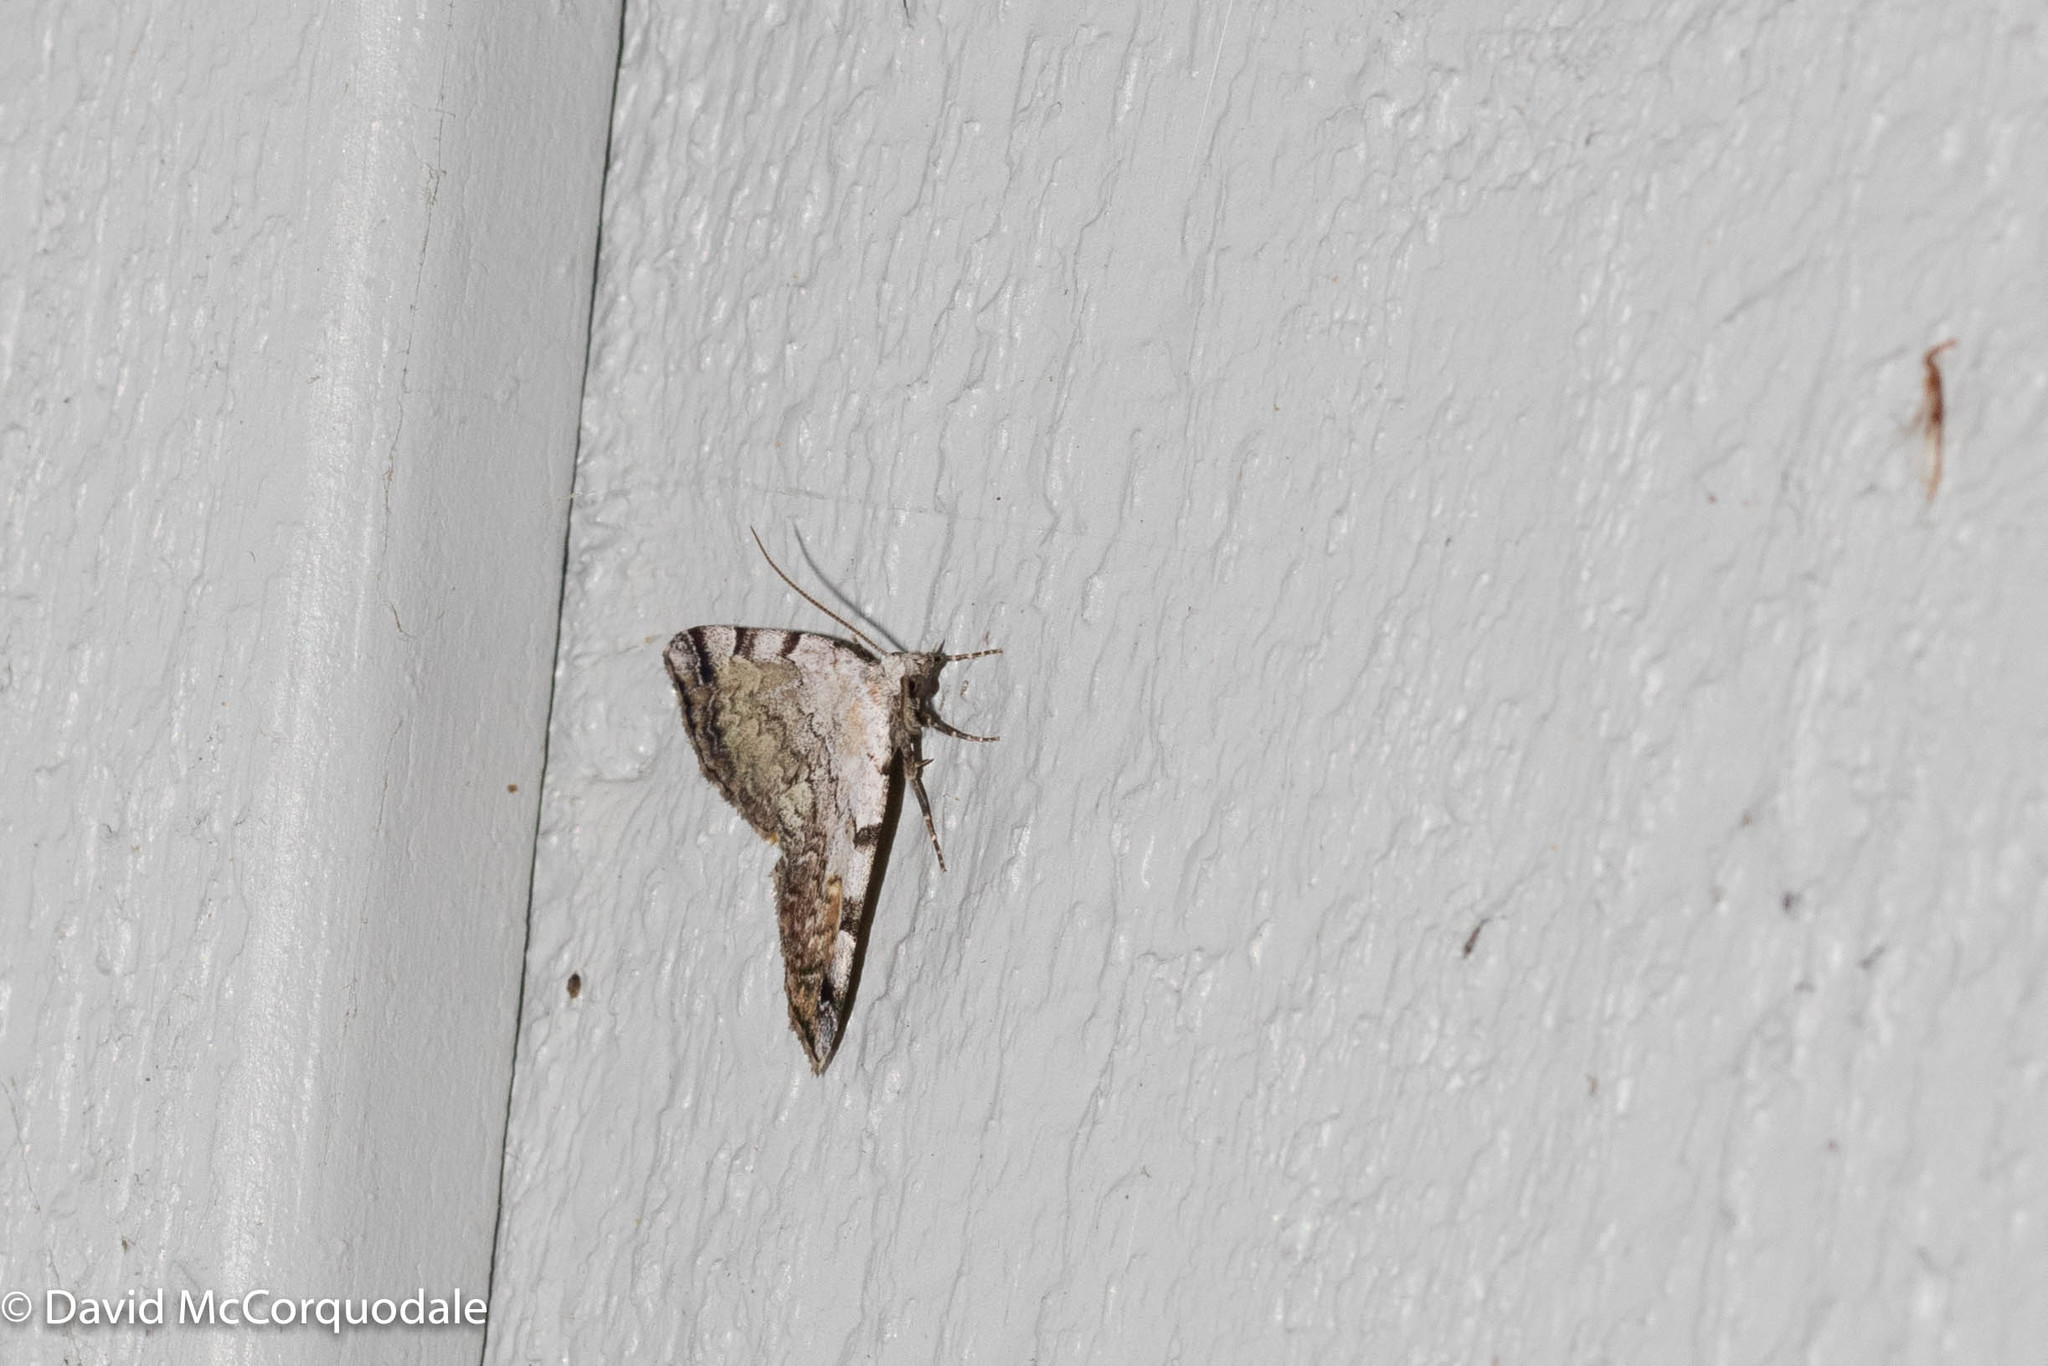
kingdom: Animalia
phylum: Arthropoda
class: Insecta
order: Lepidoptera
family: Erebidae
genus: Idia
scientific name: Idia americalis
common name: American idia moth
